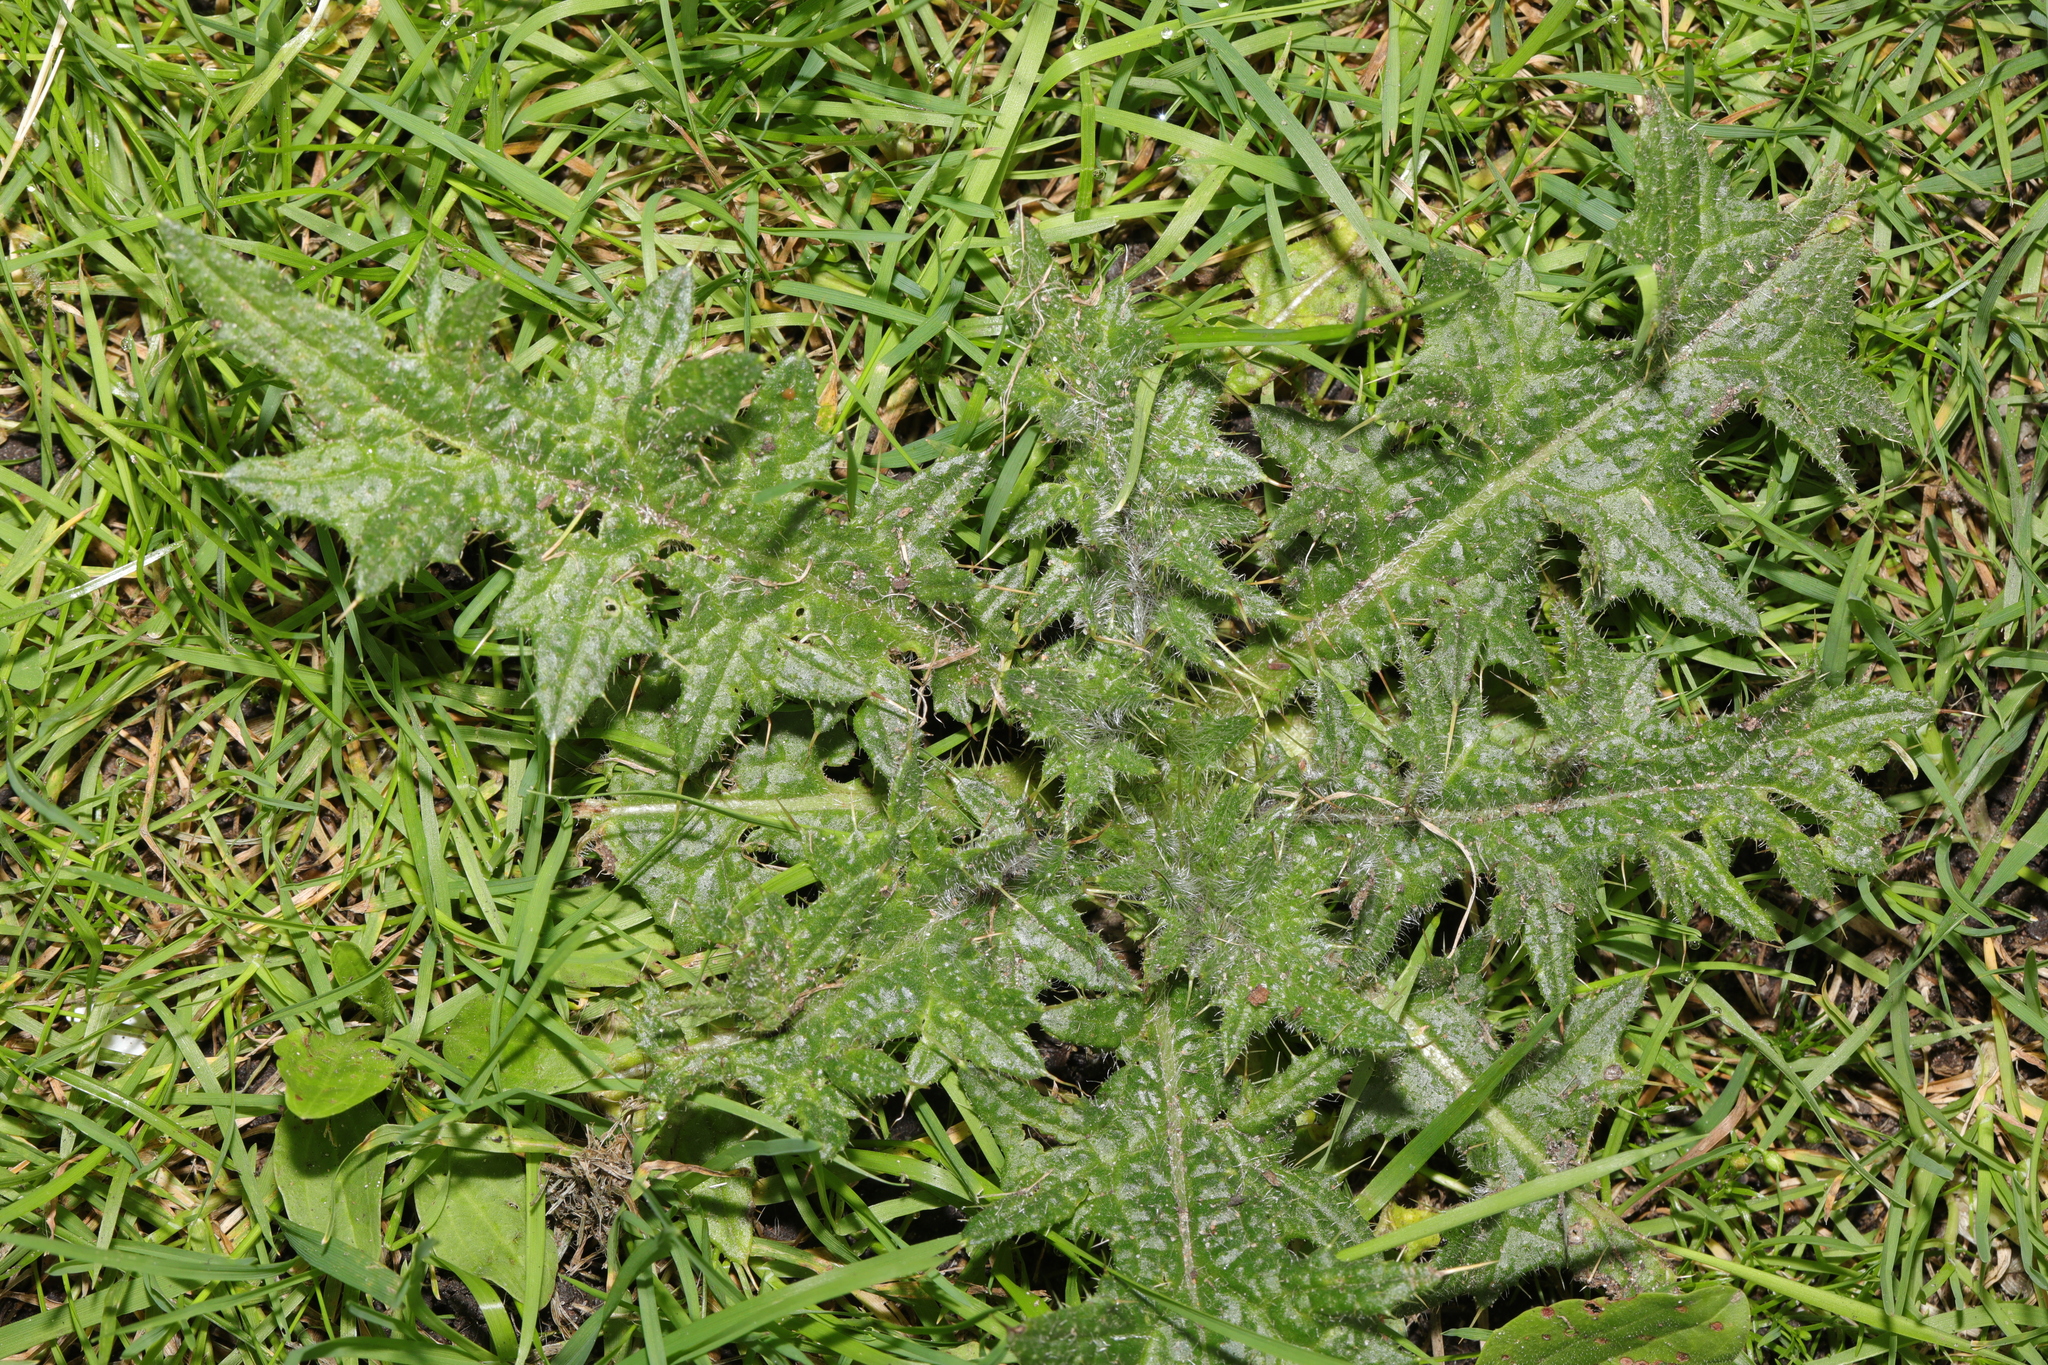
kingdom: Plantae
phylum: Tracheophyta
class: Magnoliopsida
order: Asterales
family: Asteraceae
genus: Cirsium
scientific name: Cirsium vulgare
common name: Bull thistle
